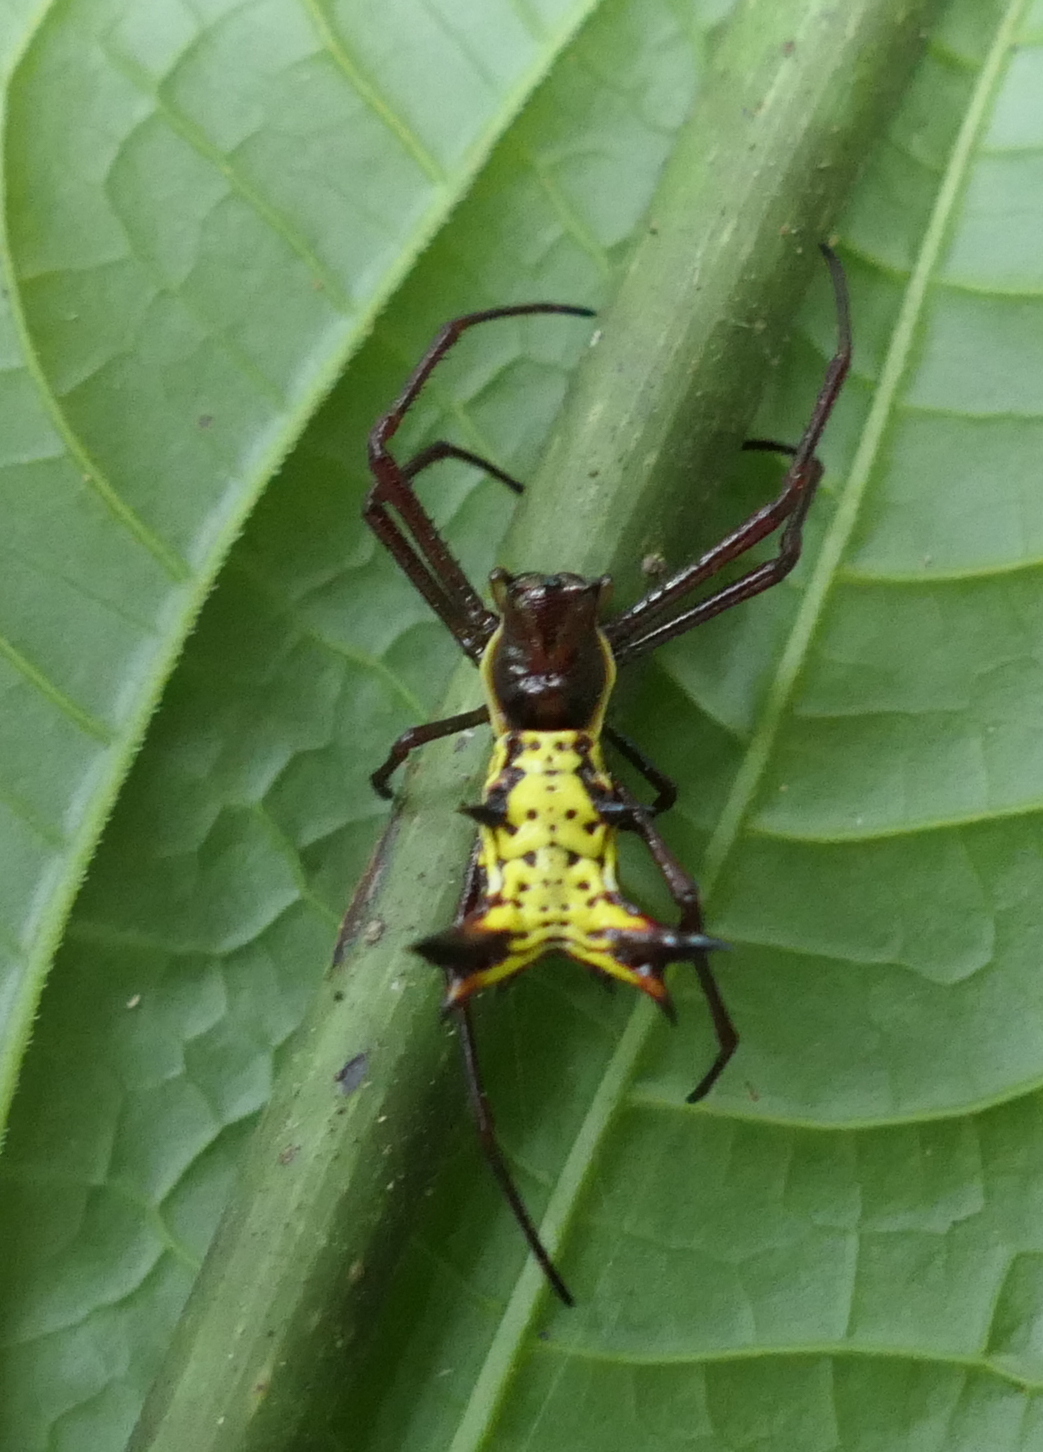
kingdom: Animalia
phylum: Arthropoda
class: Arachnida
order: Araneae
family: Araneidae
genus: Micrathena
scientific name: Micrathena fissispina
